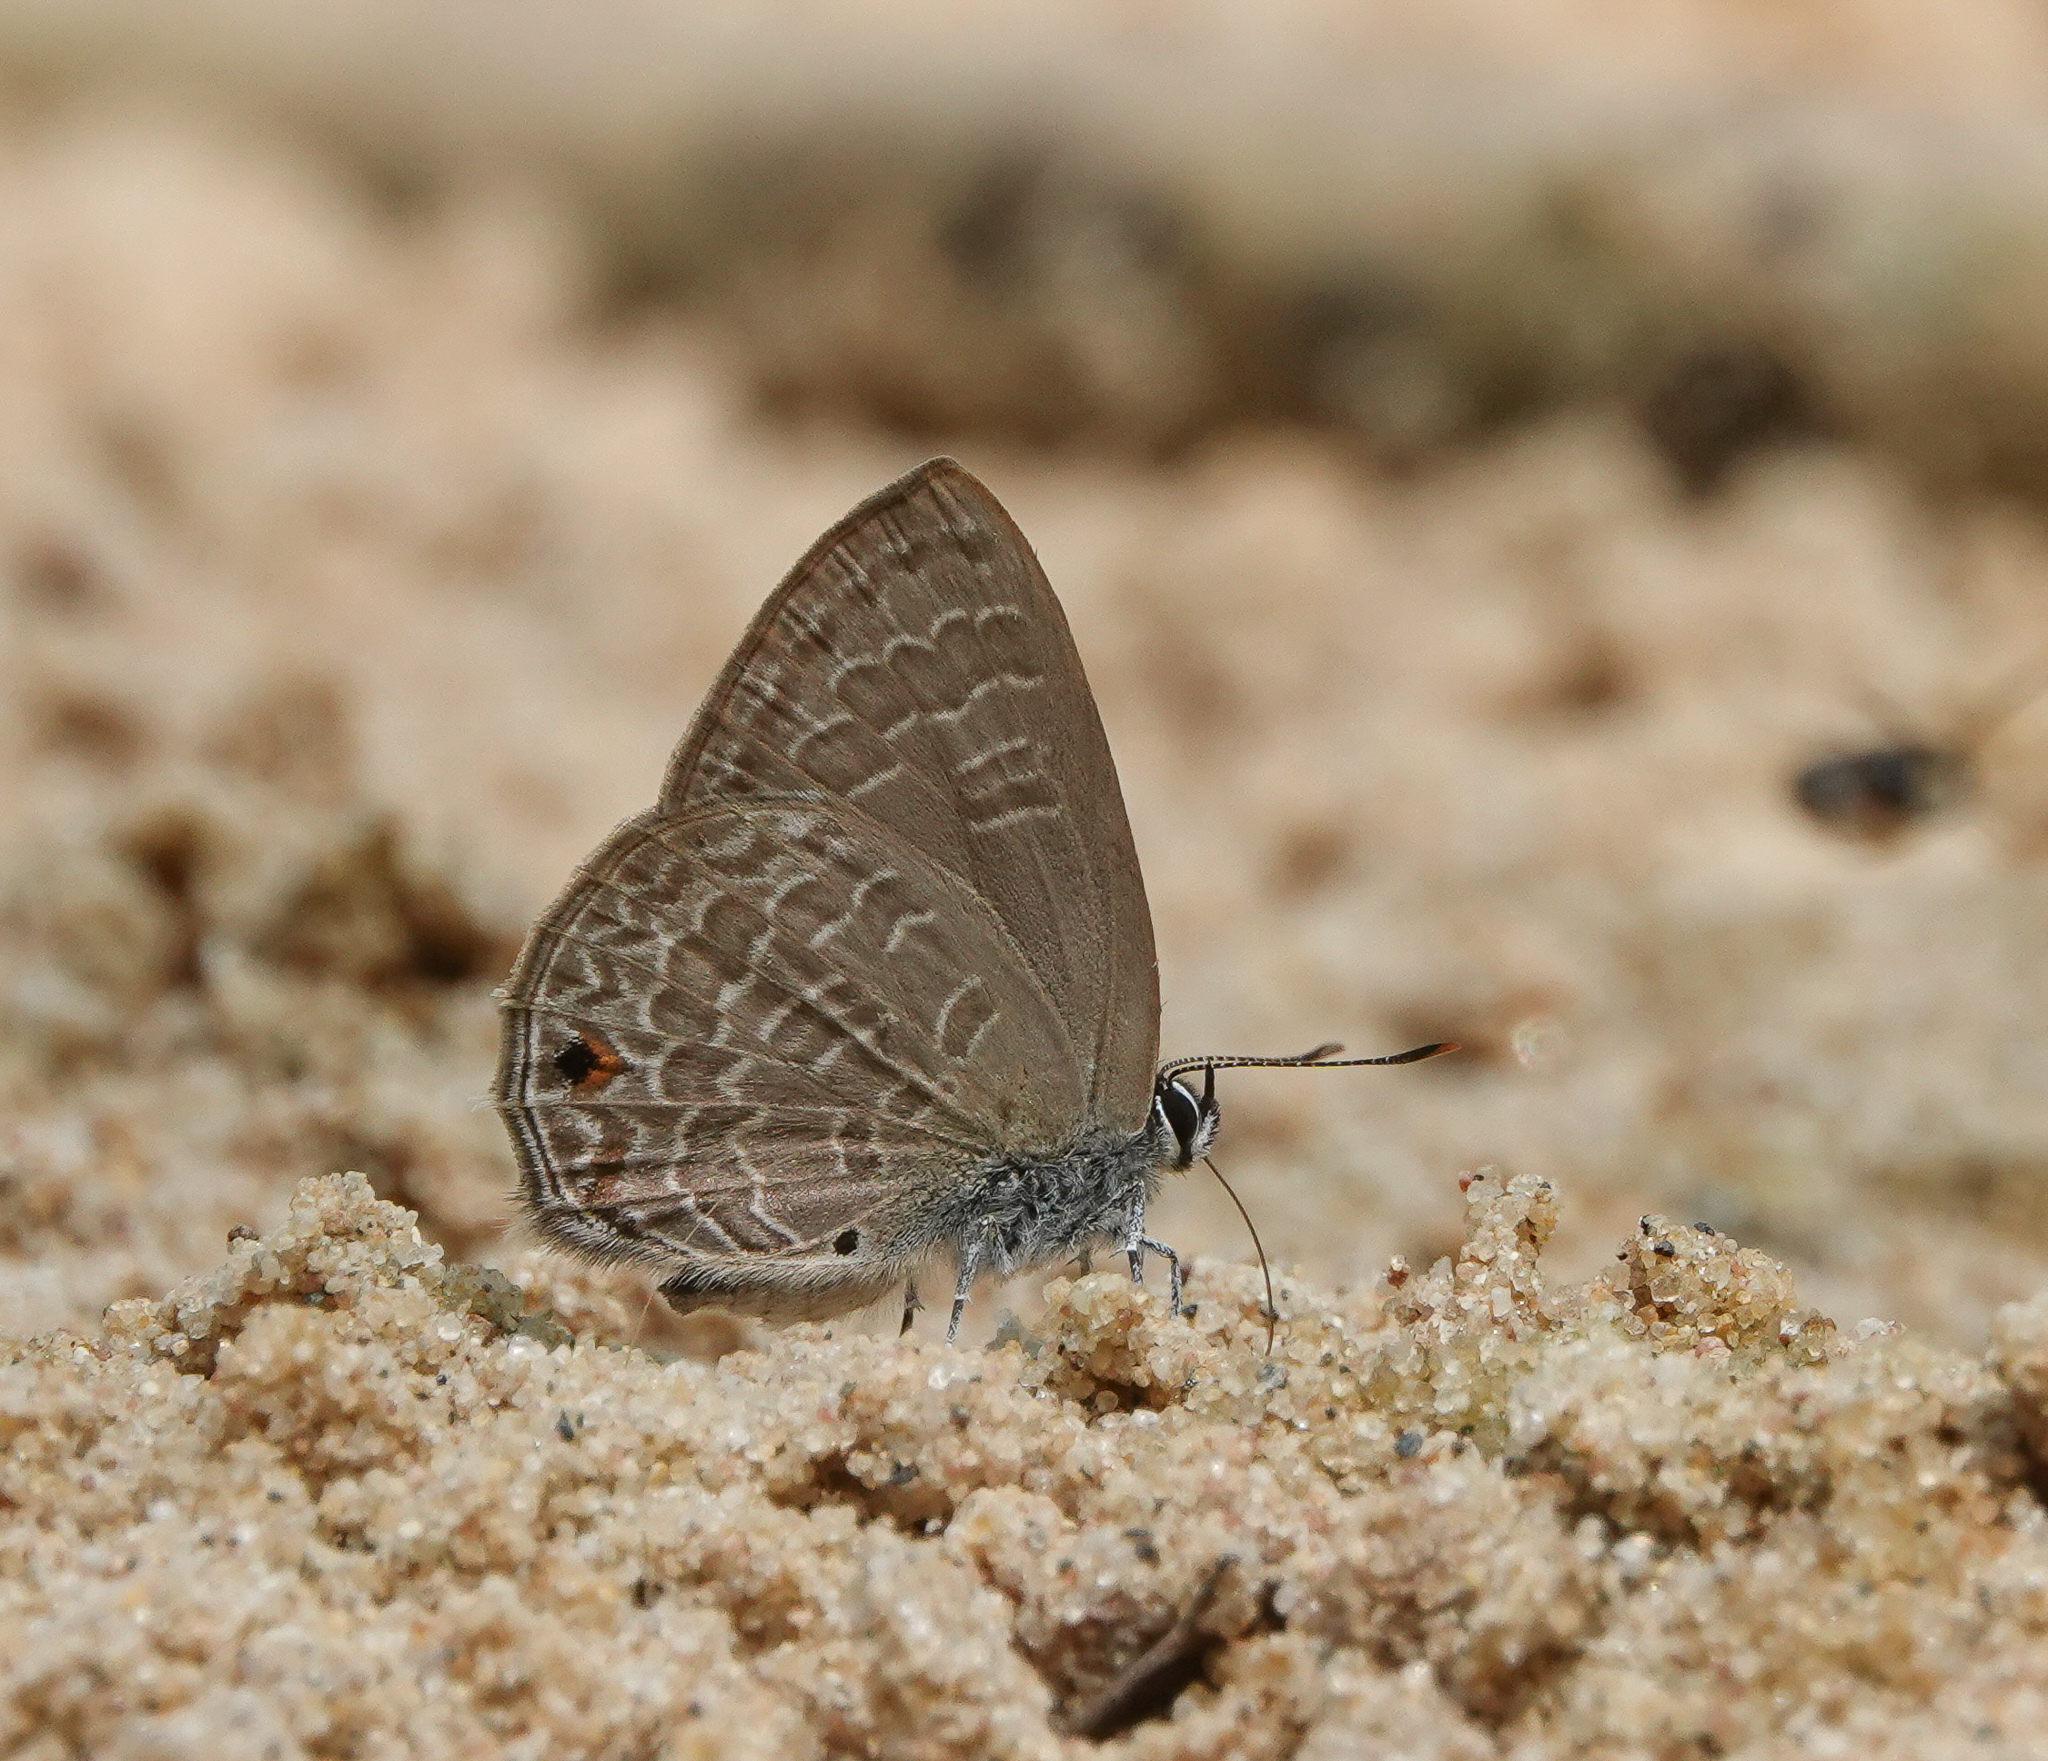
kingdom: Animalia
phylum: Arthropoda
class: Insecta
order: Lepidoptera
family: Lycaenidae
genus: Anthene
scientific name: Anthene emolus
